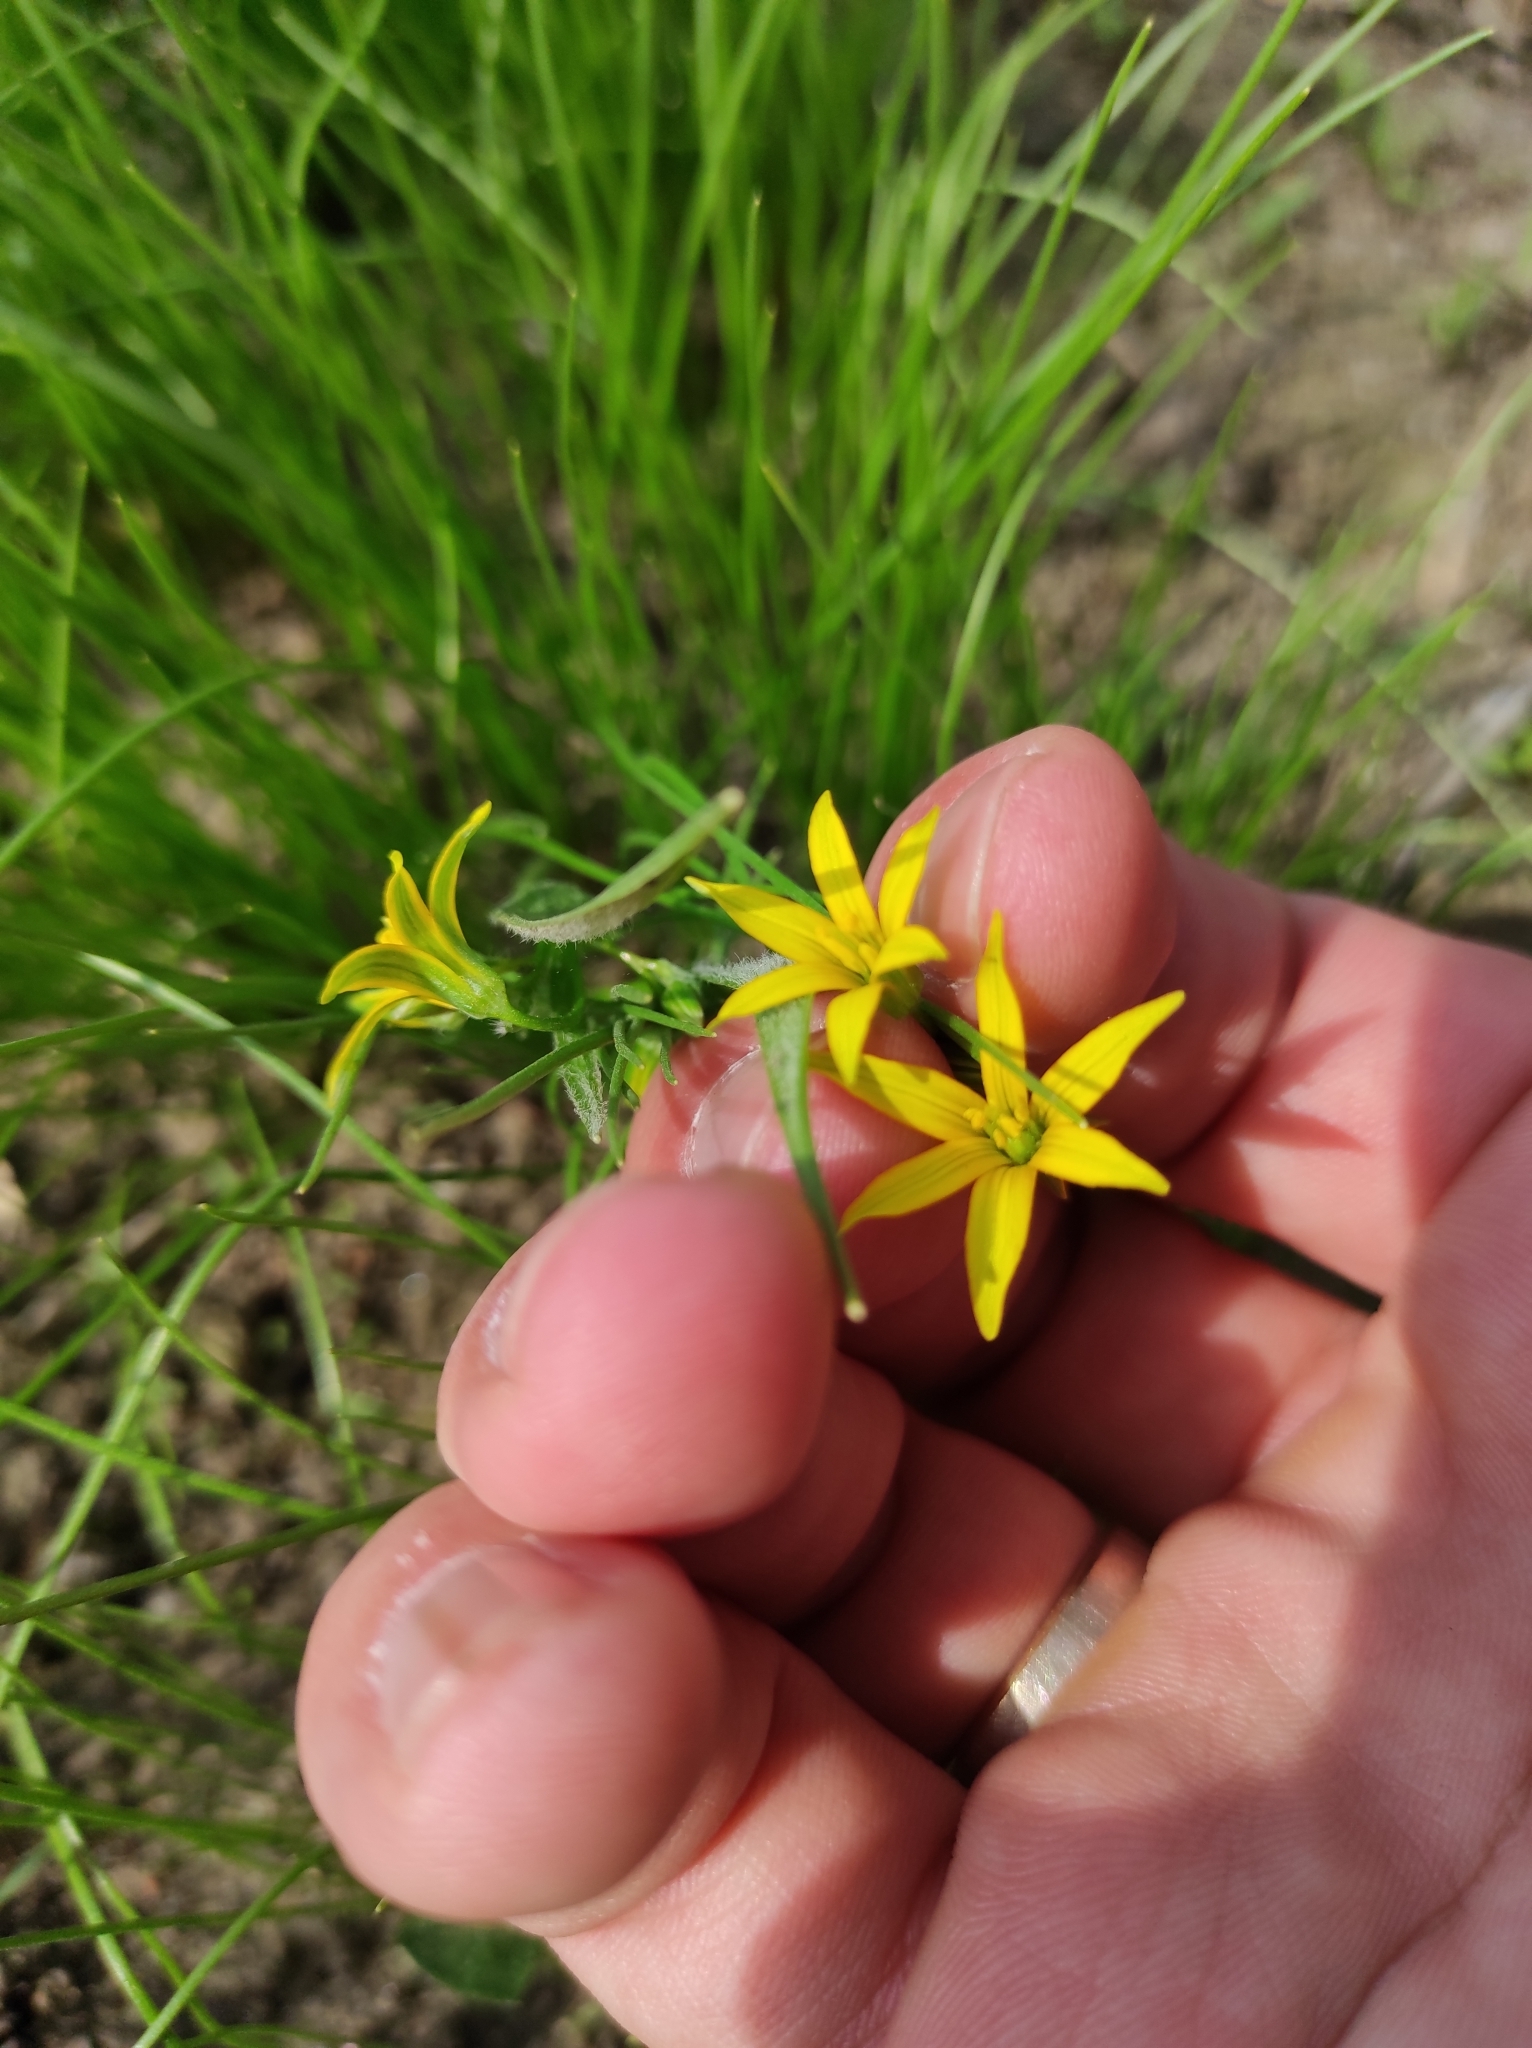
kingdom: Plantae
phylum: Tracheophyta
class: Liliopsida
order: Liliales
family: Liliaceae
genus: Gagea
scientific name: Gagea minima
